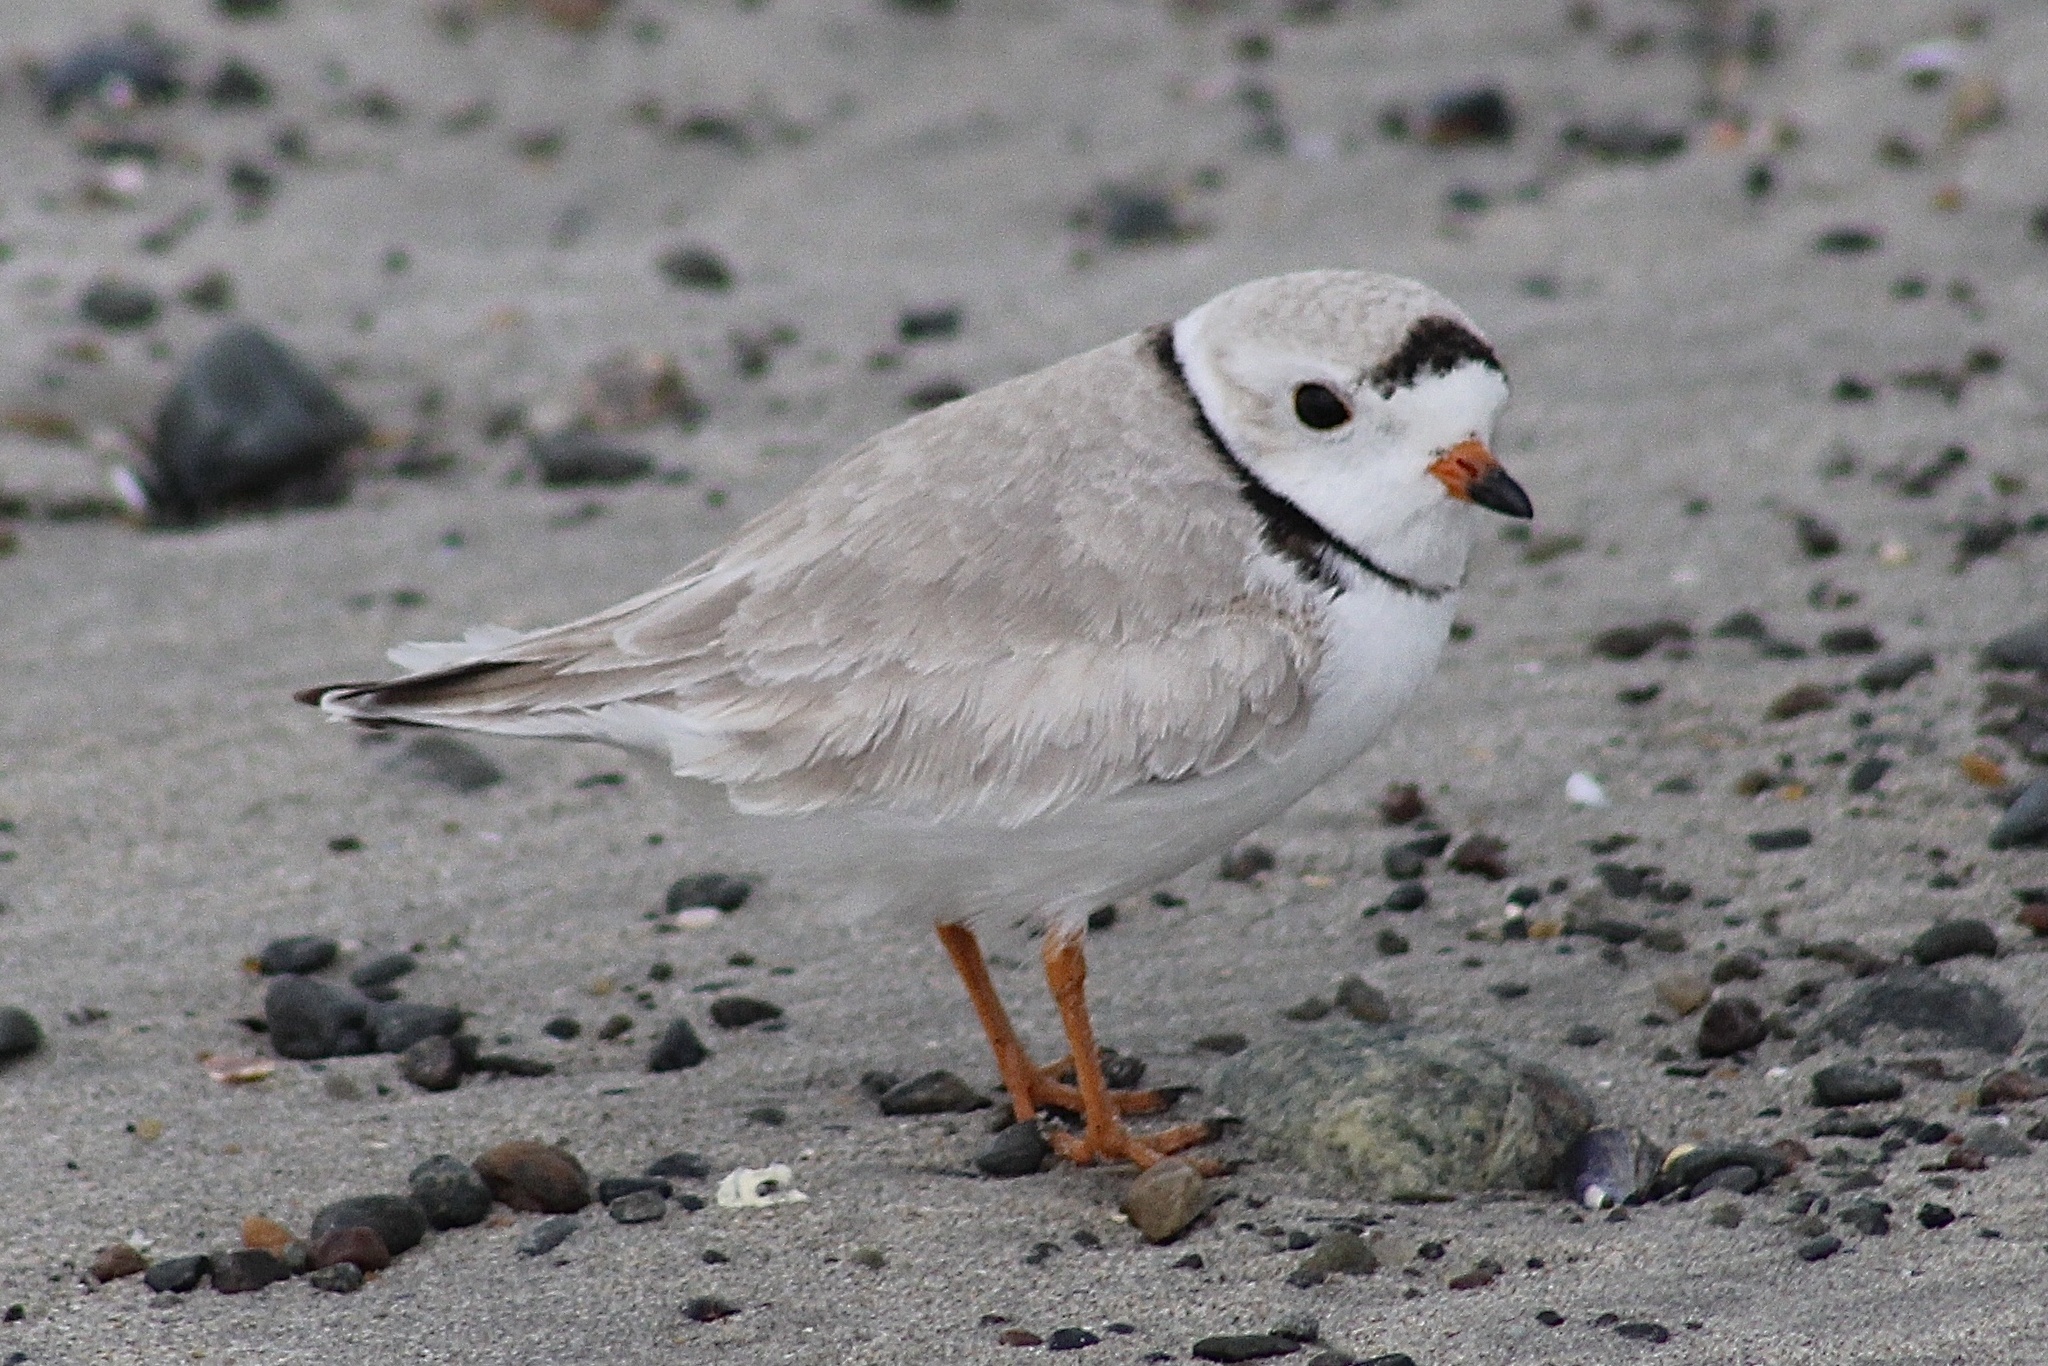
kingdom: Animalia
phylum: Chordata
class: Aves
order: Charadriiformes
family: Charadriidae
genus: Charadrius
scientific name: Charadrius melodus
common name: Piping plover
